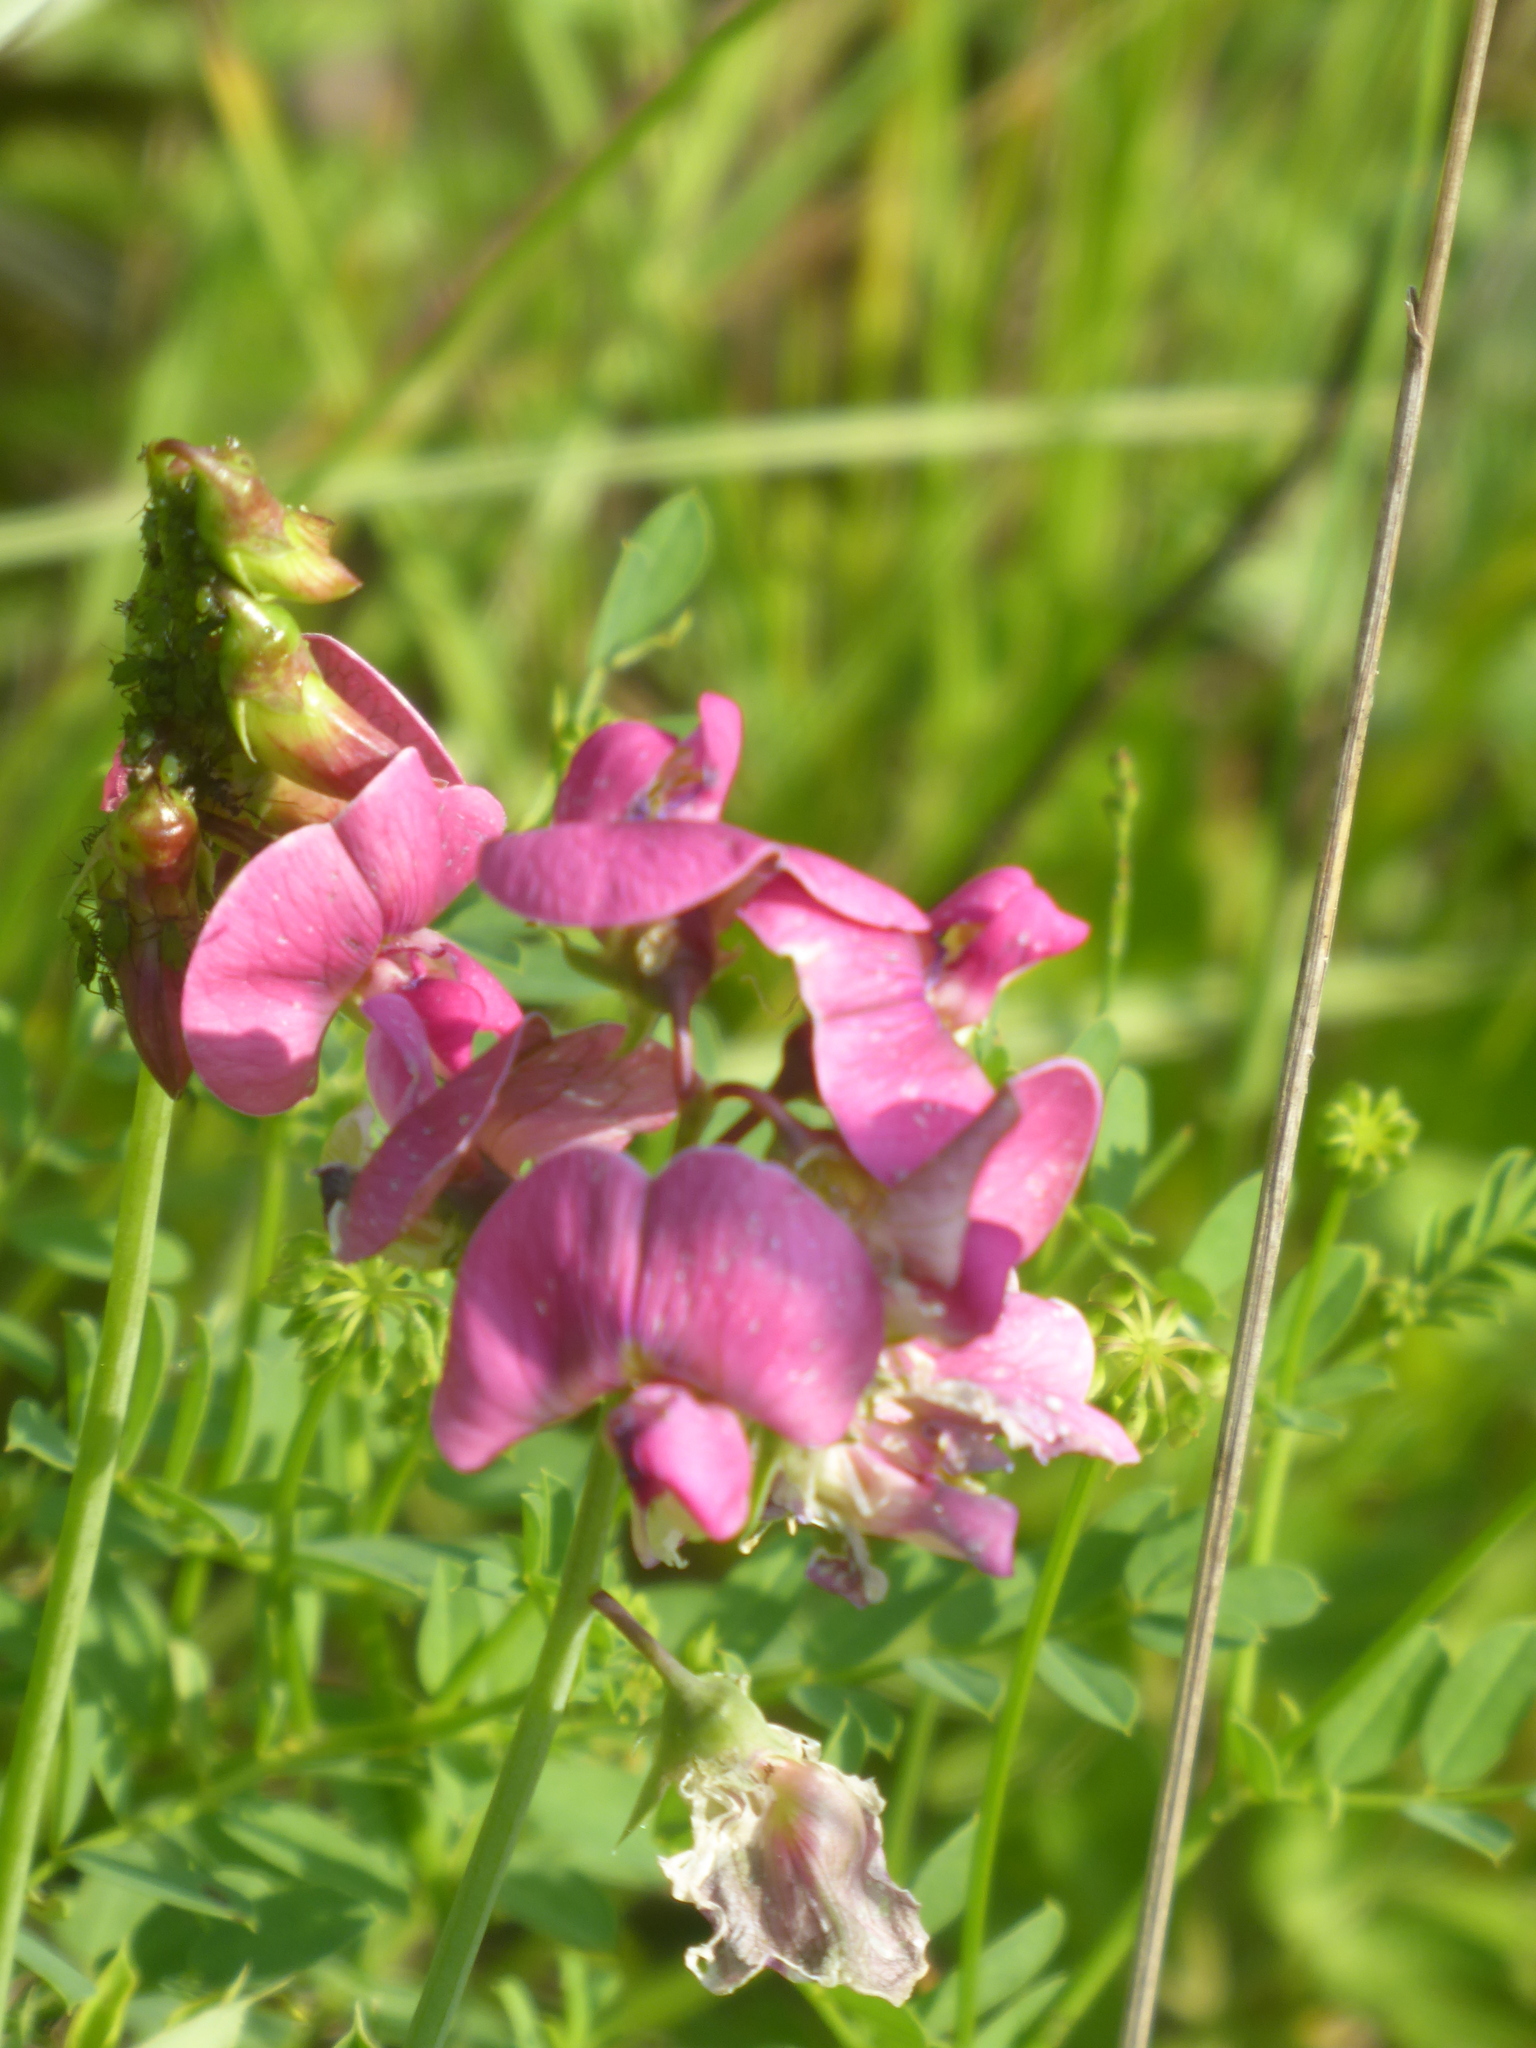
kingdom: Plantae
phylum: Tracheophyta
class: Magnoliopsida
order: Fabales
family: Fabaceae
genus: Lathyrus
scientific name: Lathyrus latifolius
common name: Perennial pea
